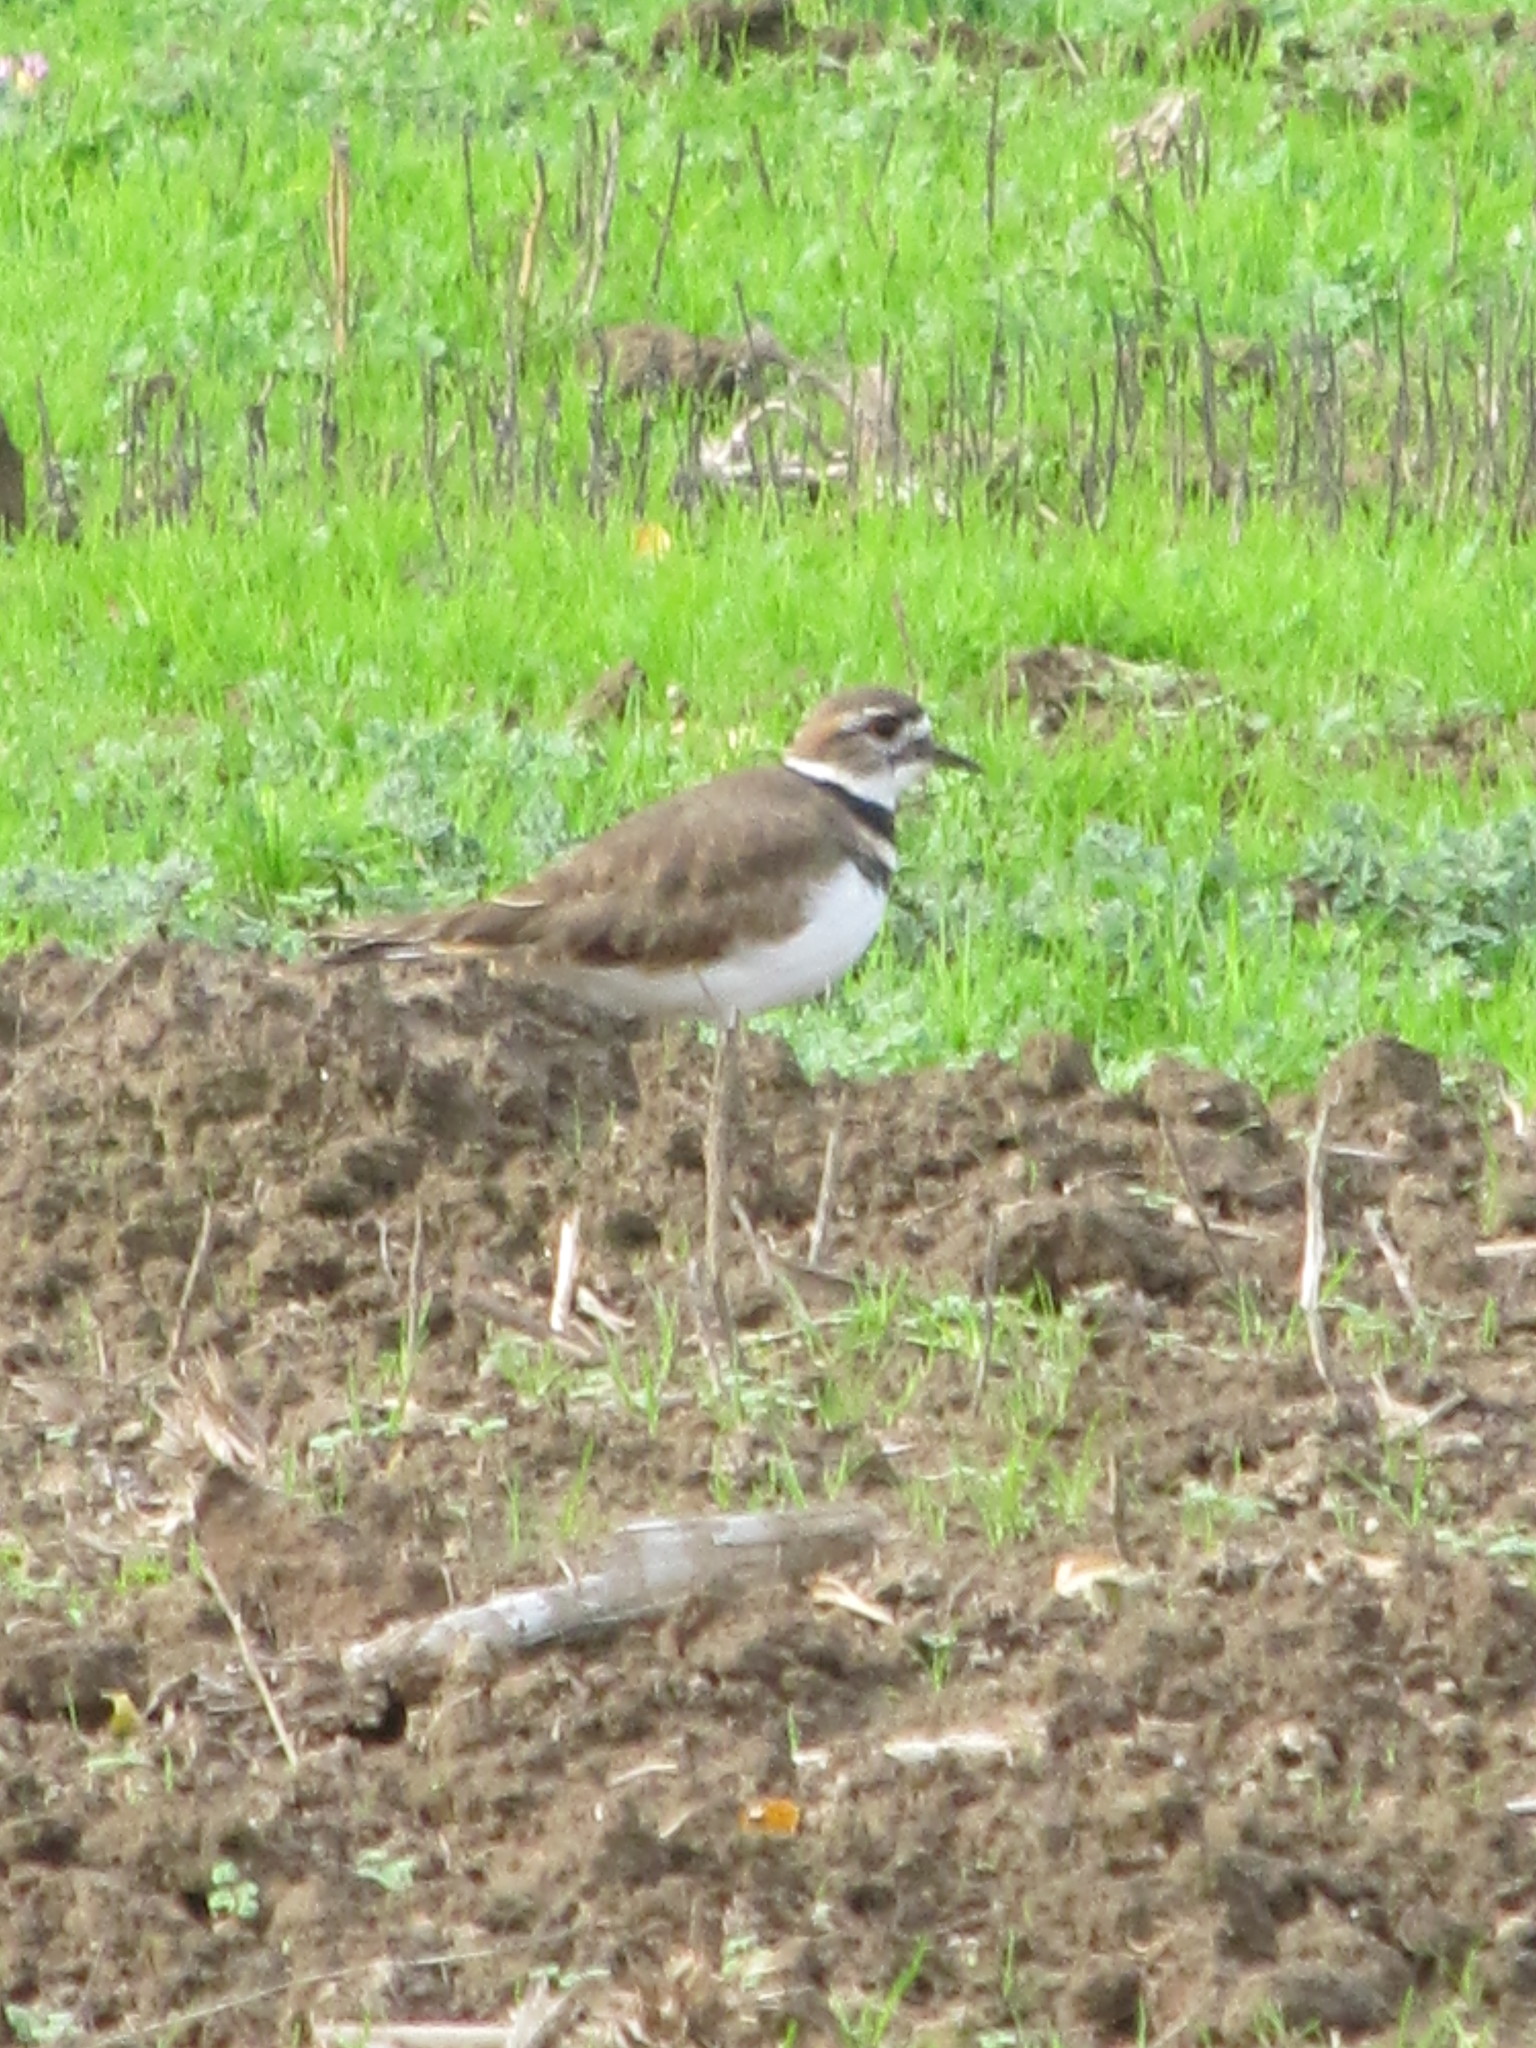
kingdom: Animalia
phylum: Chordata
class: Aves
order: Charadriiformes
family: Charadriidae
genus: Charadrius
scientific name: Charadrius vociferus
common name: Killdeer
